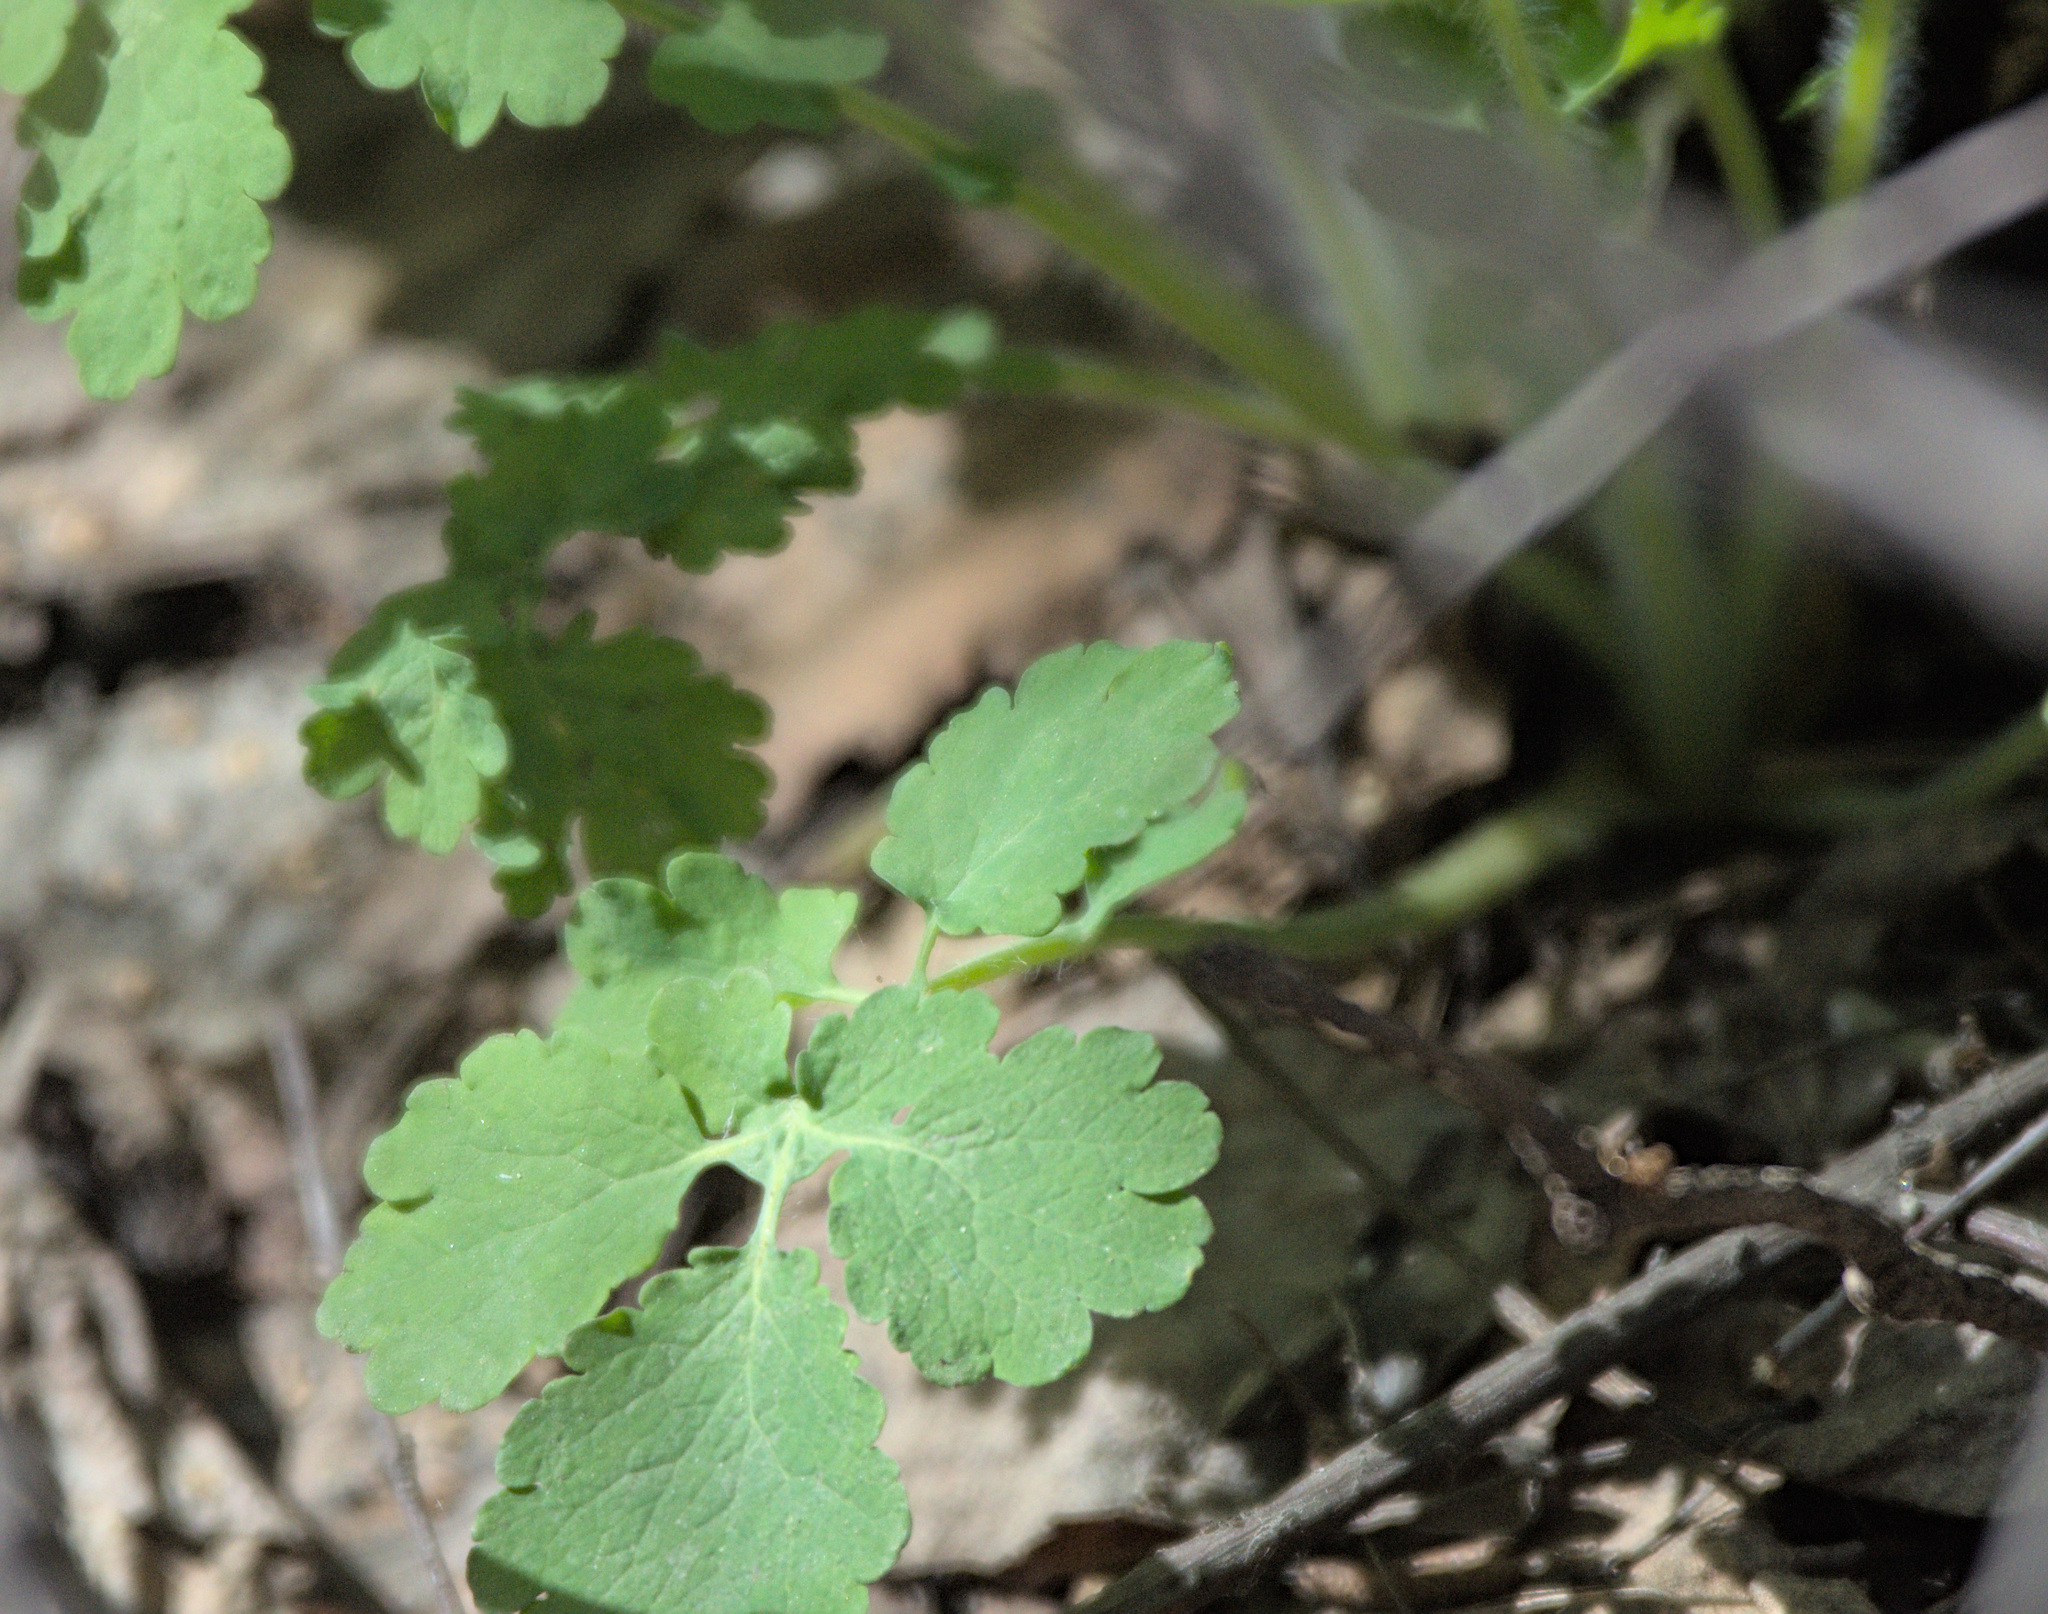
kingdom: Plantae
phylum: Tracheophyta
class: Magnoliopsida
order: Ranunculales
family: Papaveraceae
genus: Chelidonium
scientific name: Chelidonium majus
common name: Greater celandine
